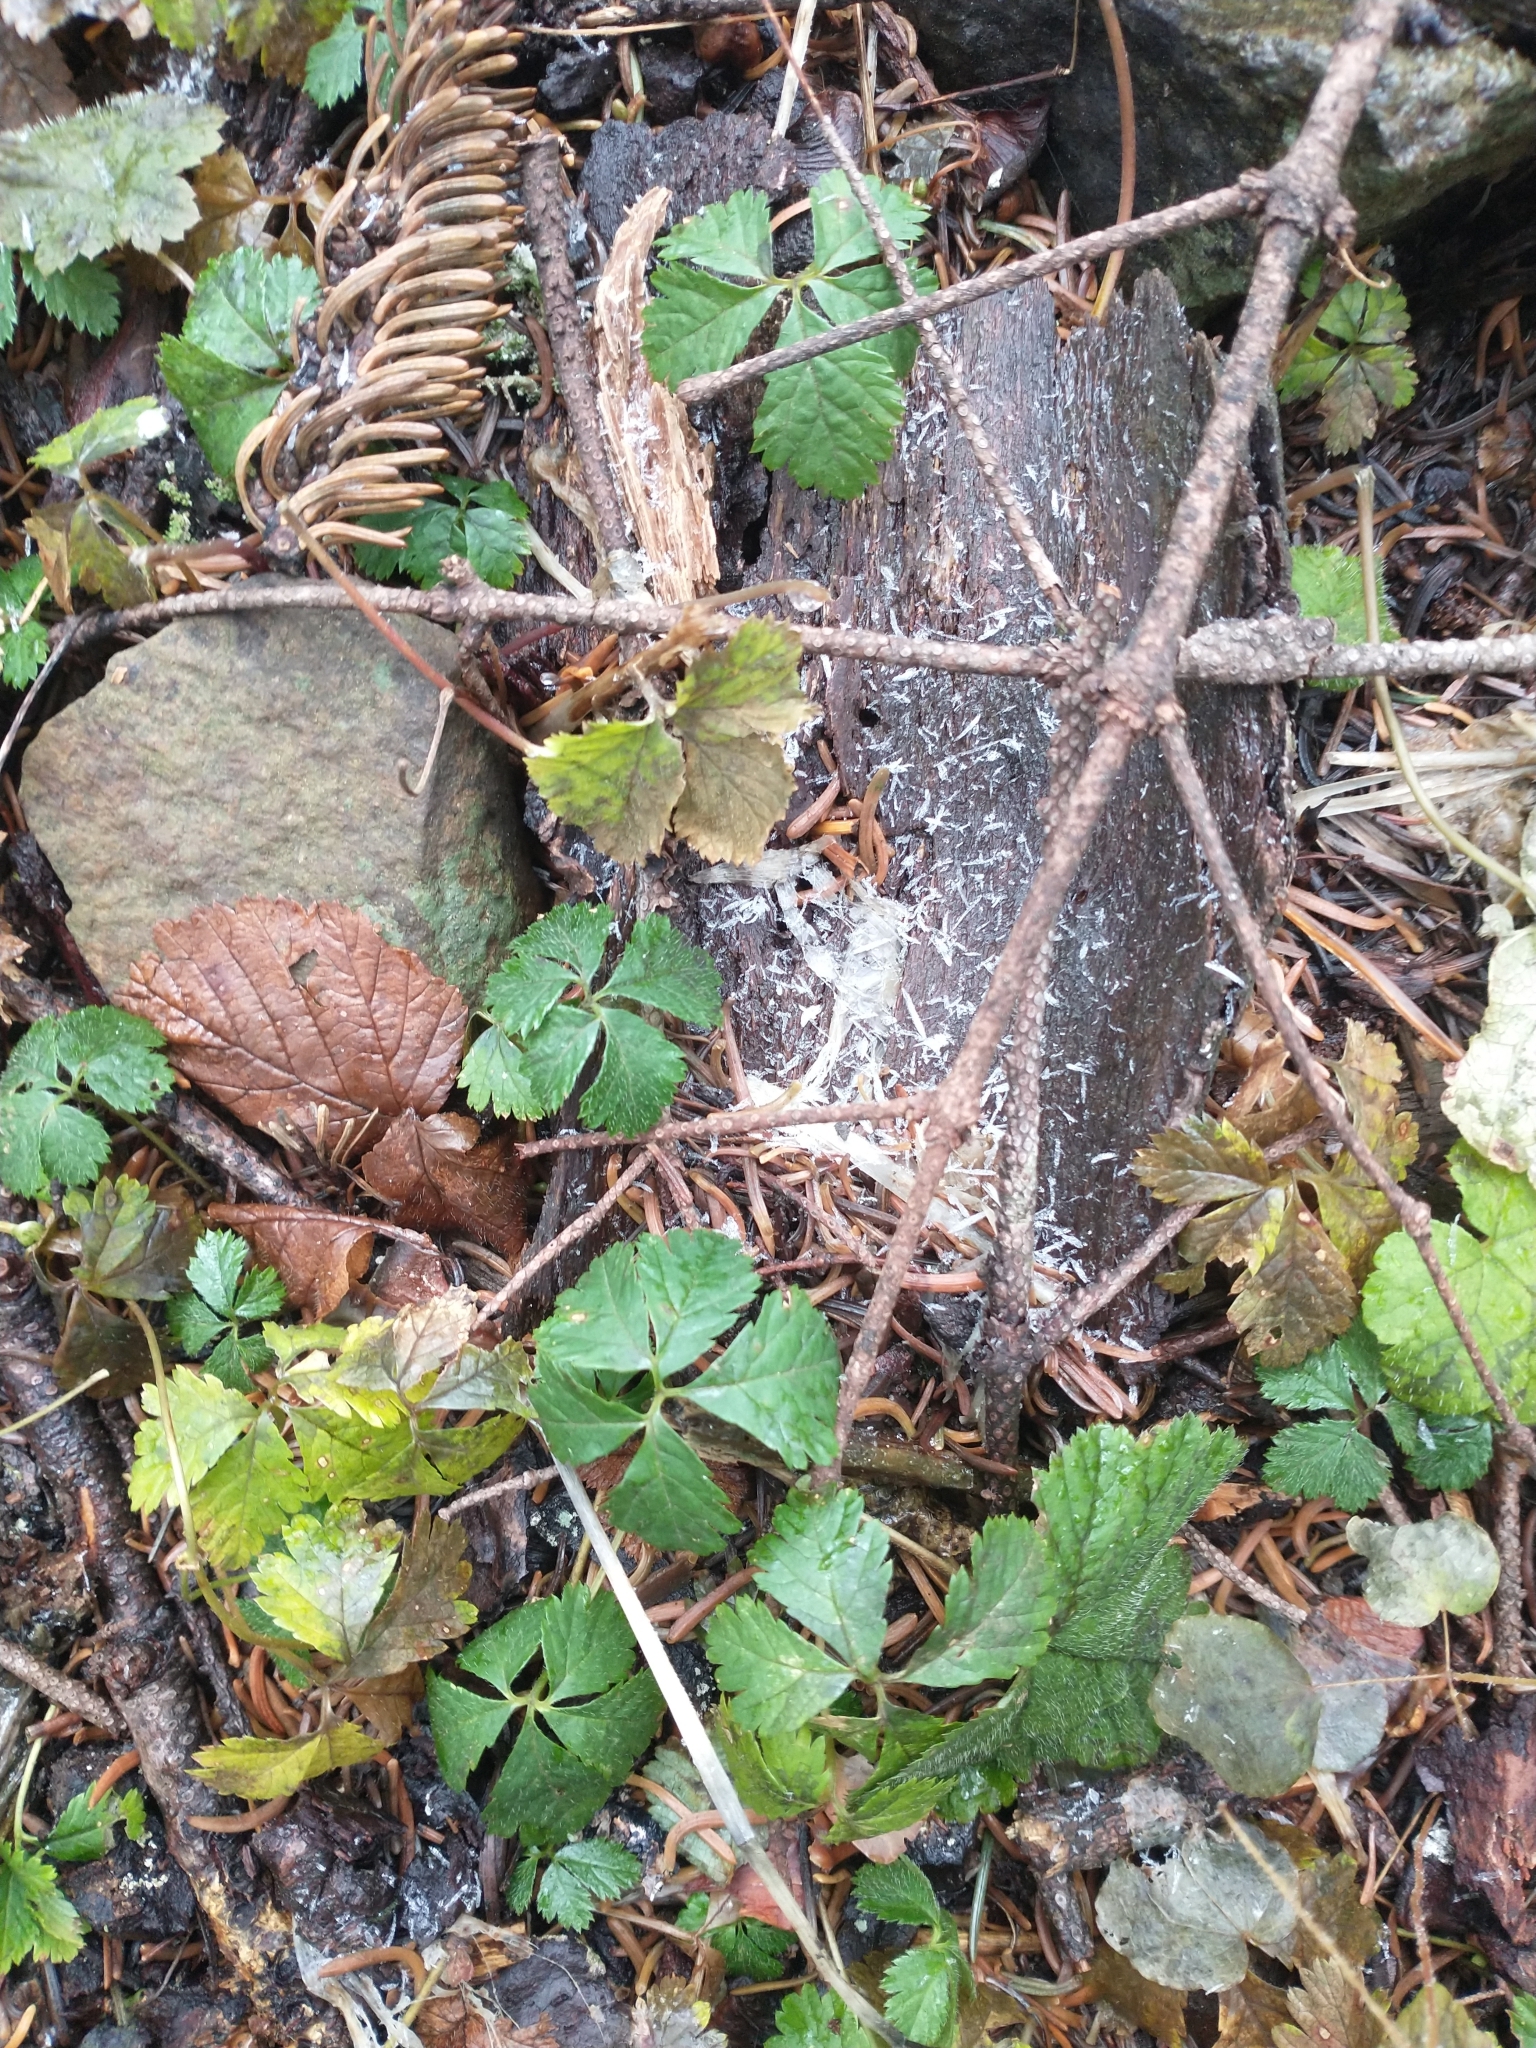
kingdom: Plantae
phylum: Tracheophyta
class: Magnoliopsida
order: Rosales
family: Rosaceae
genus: Rubus
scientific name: Rubus pedatus
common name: Creeping raspberry
